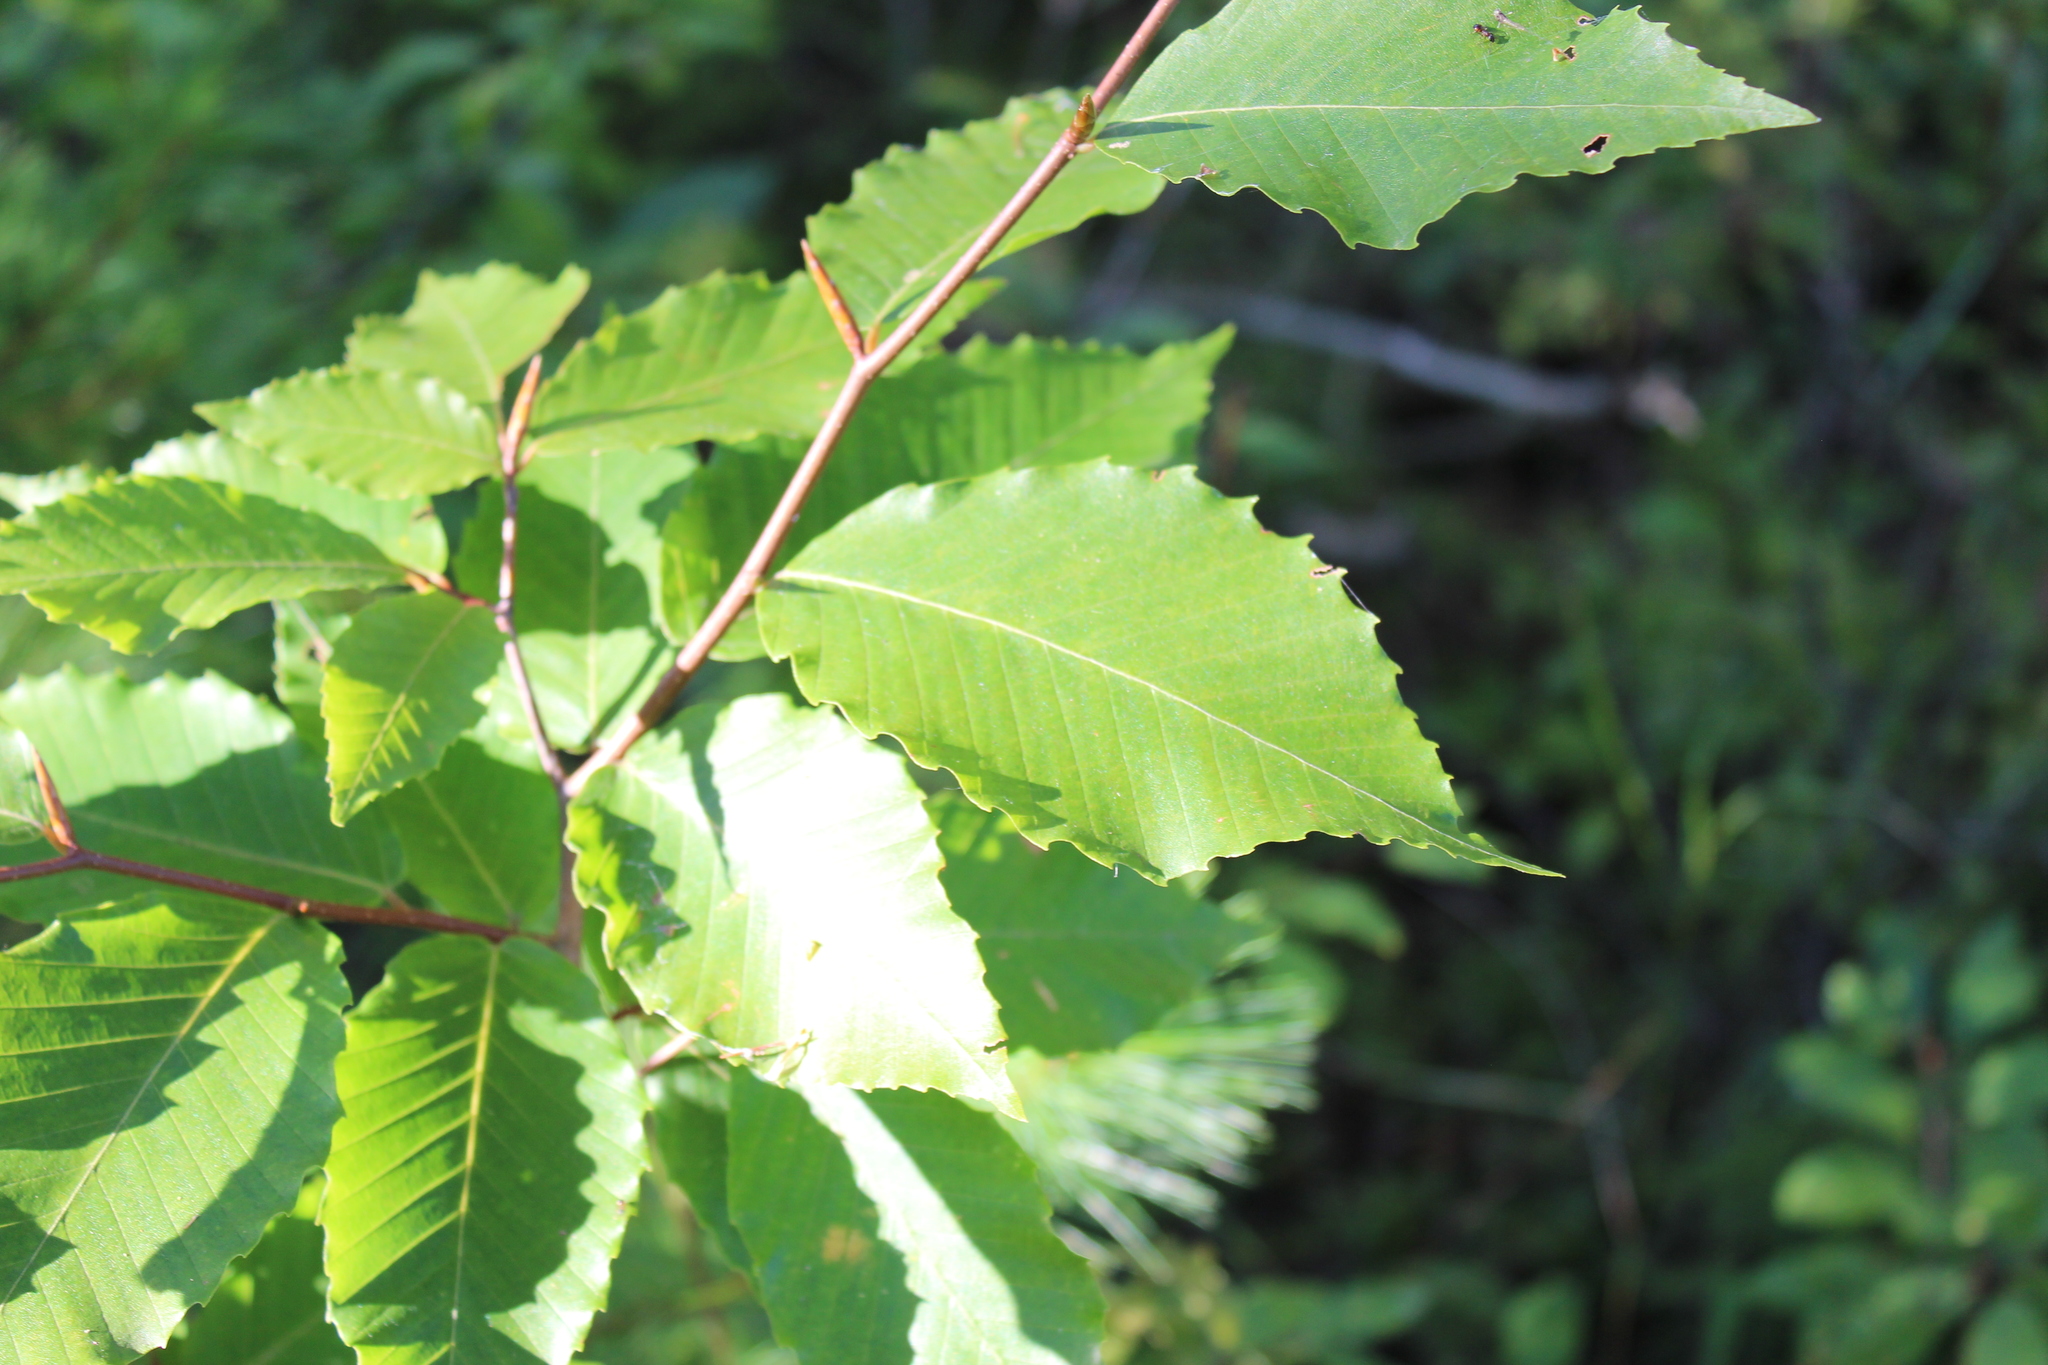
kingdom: Plantae
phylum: Tracheophyta
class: Magnoliopsida
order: Fagales
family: Fagaceae
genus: Fagus
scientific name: Fagus grandifolia
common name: American beech
